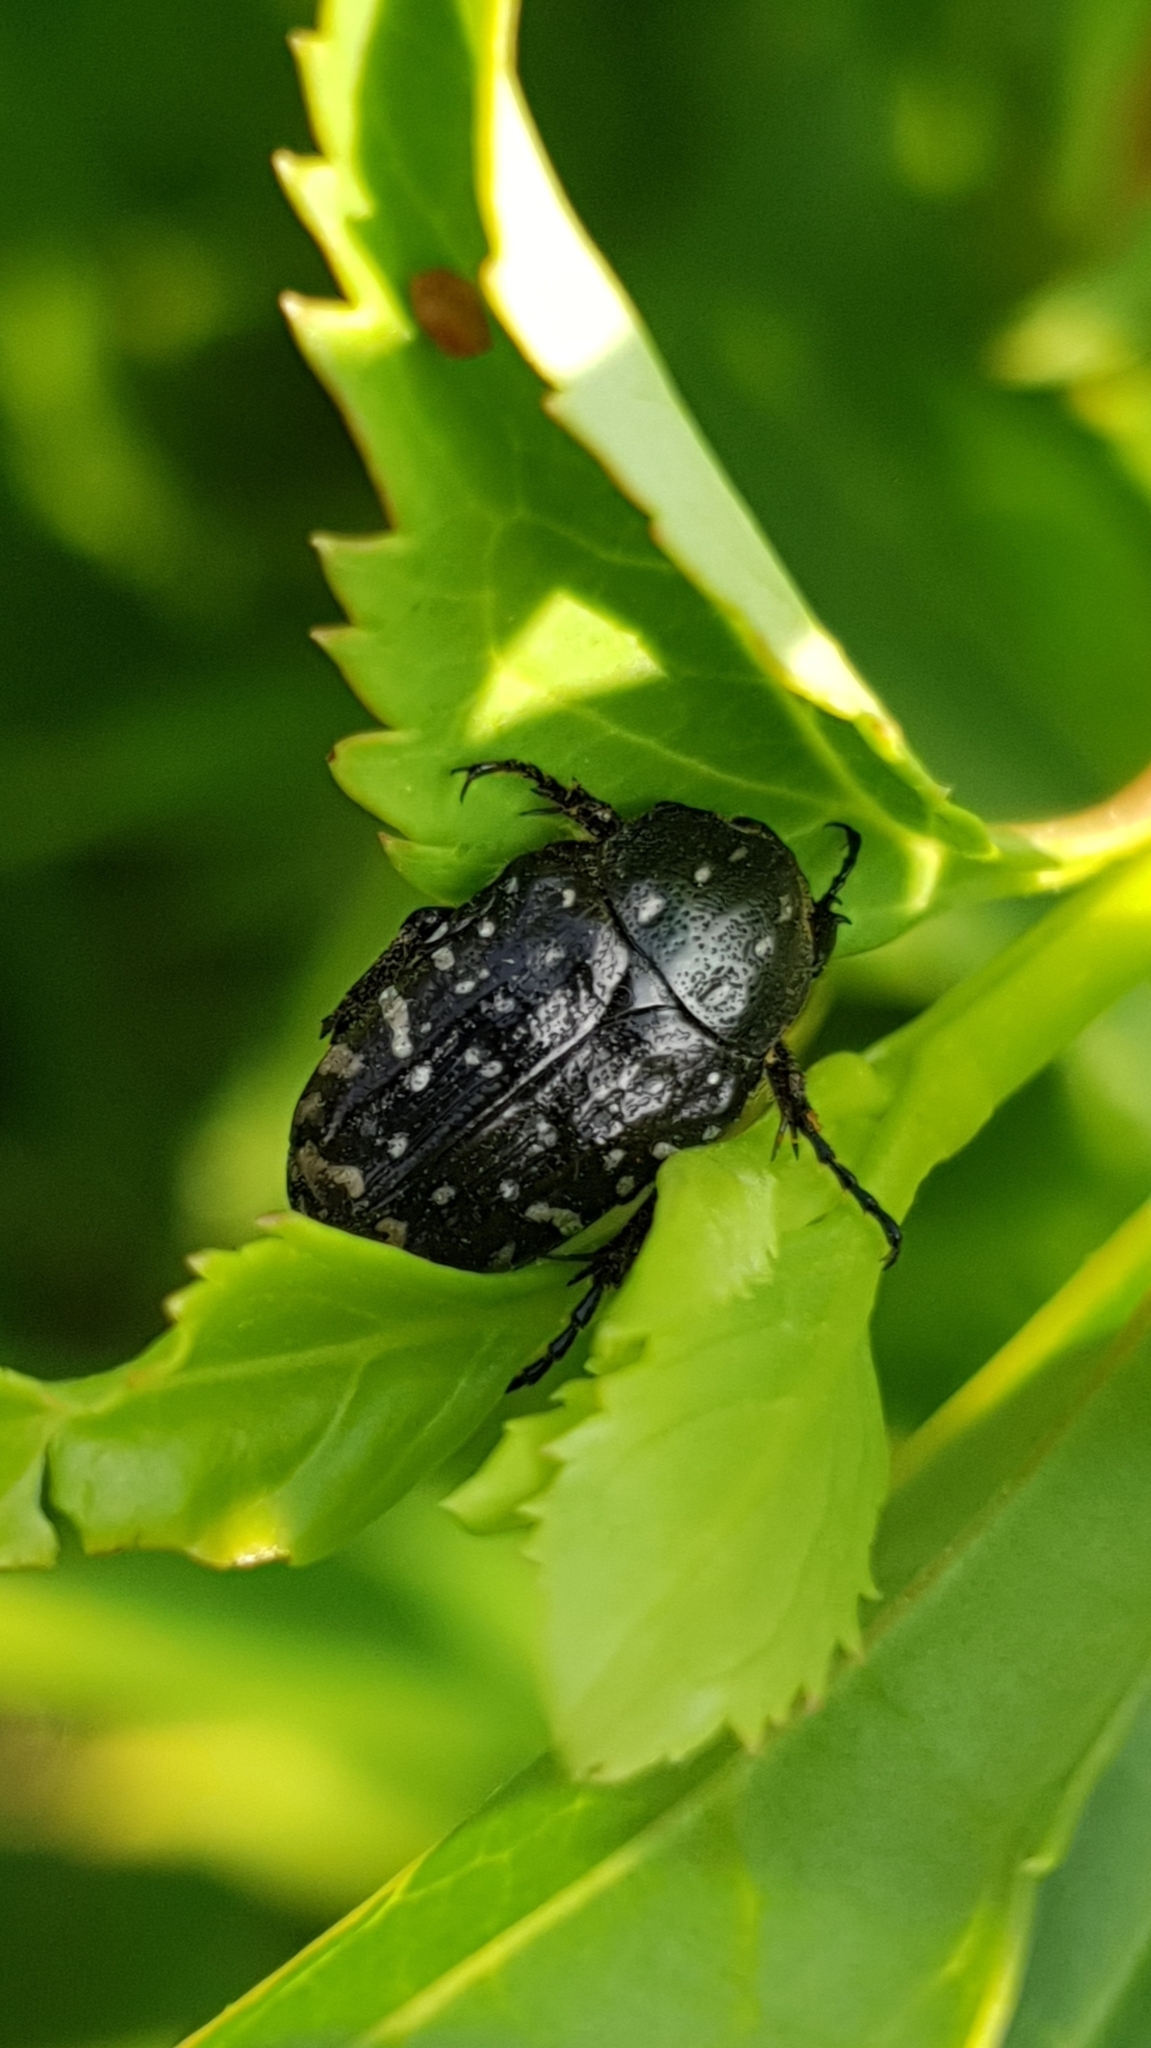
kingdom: Animalia
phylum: Arthropoda
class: Insecta
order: Coleoptera
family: Scarabaeidae
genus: Oxythyrea
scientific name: Oxythyrea funesta
